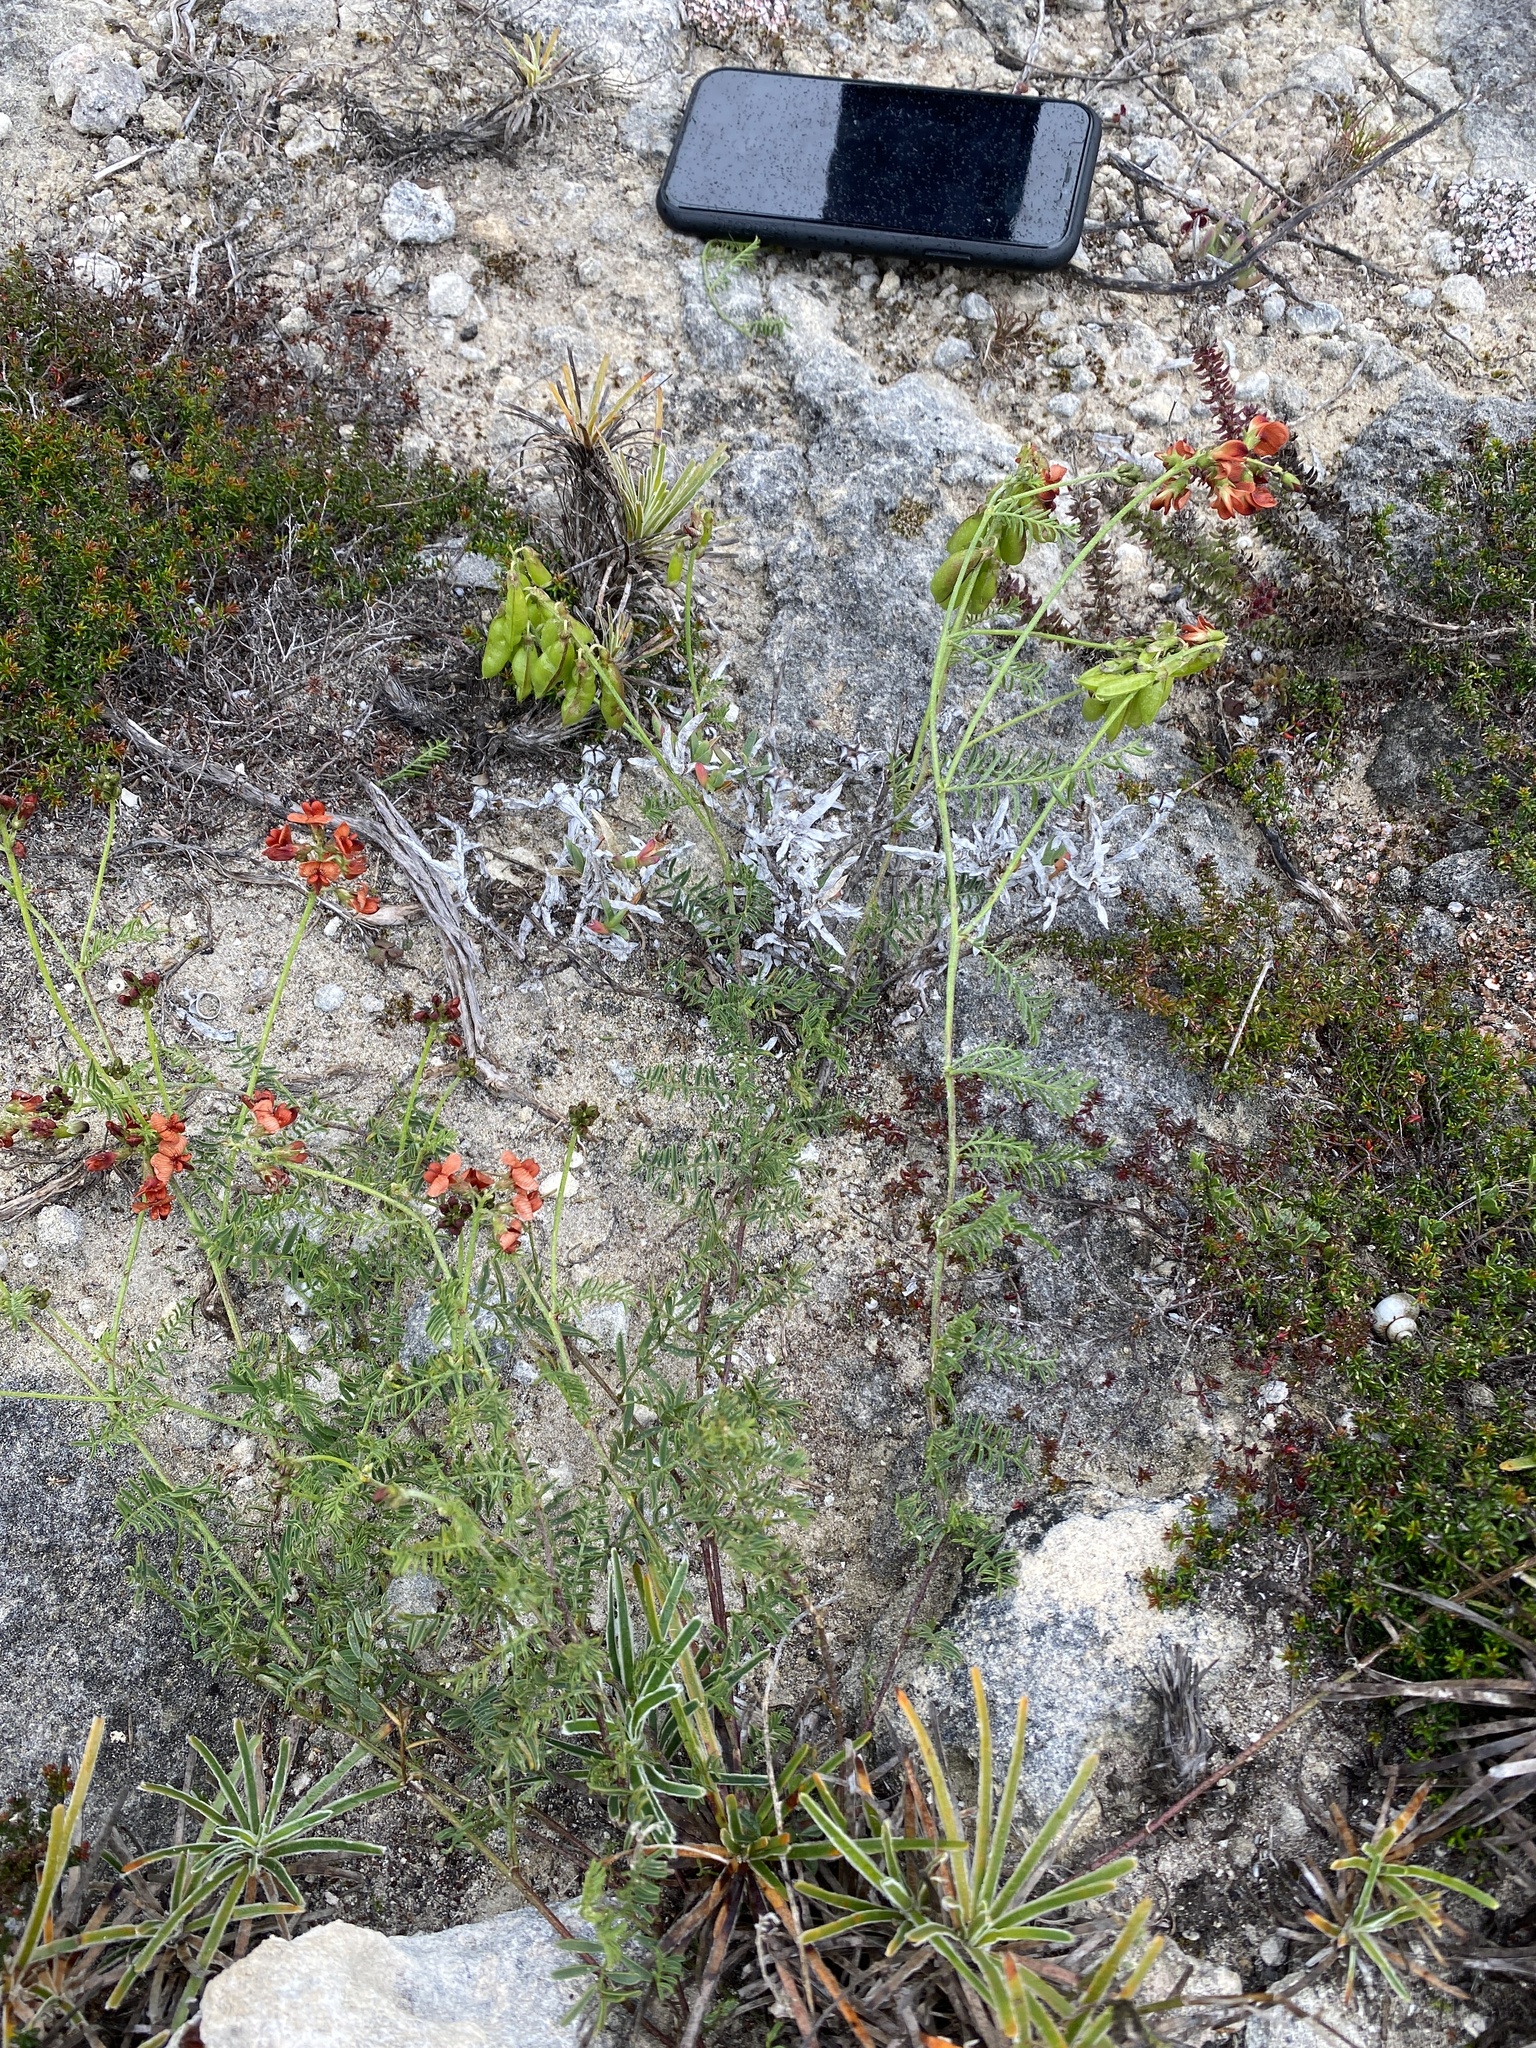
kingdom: Plantae
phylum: Tracheophyta
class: Magnoliopsida
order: Fabales
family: Fabaceae
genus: Lessertia
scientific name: Lessertia miniata
